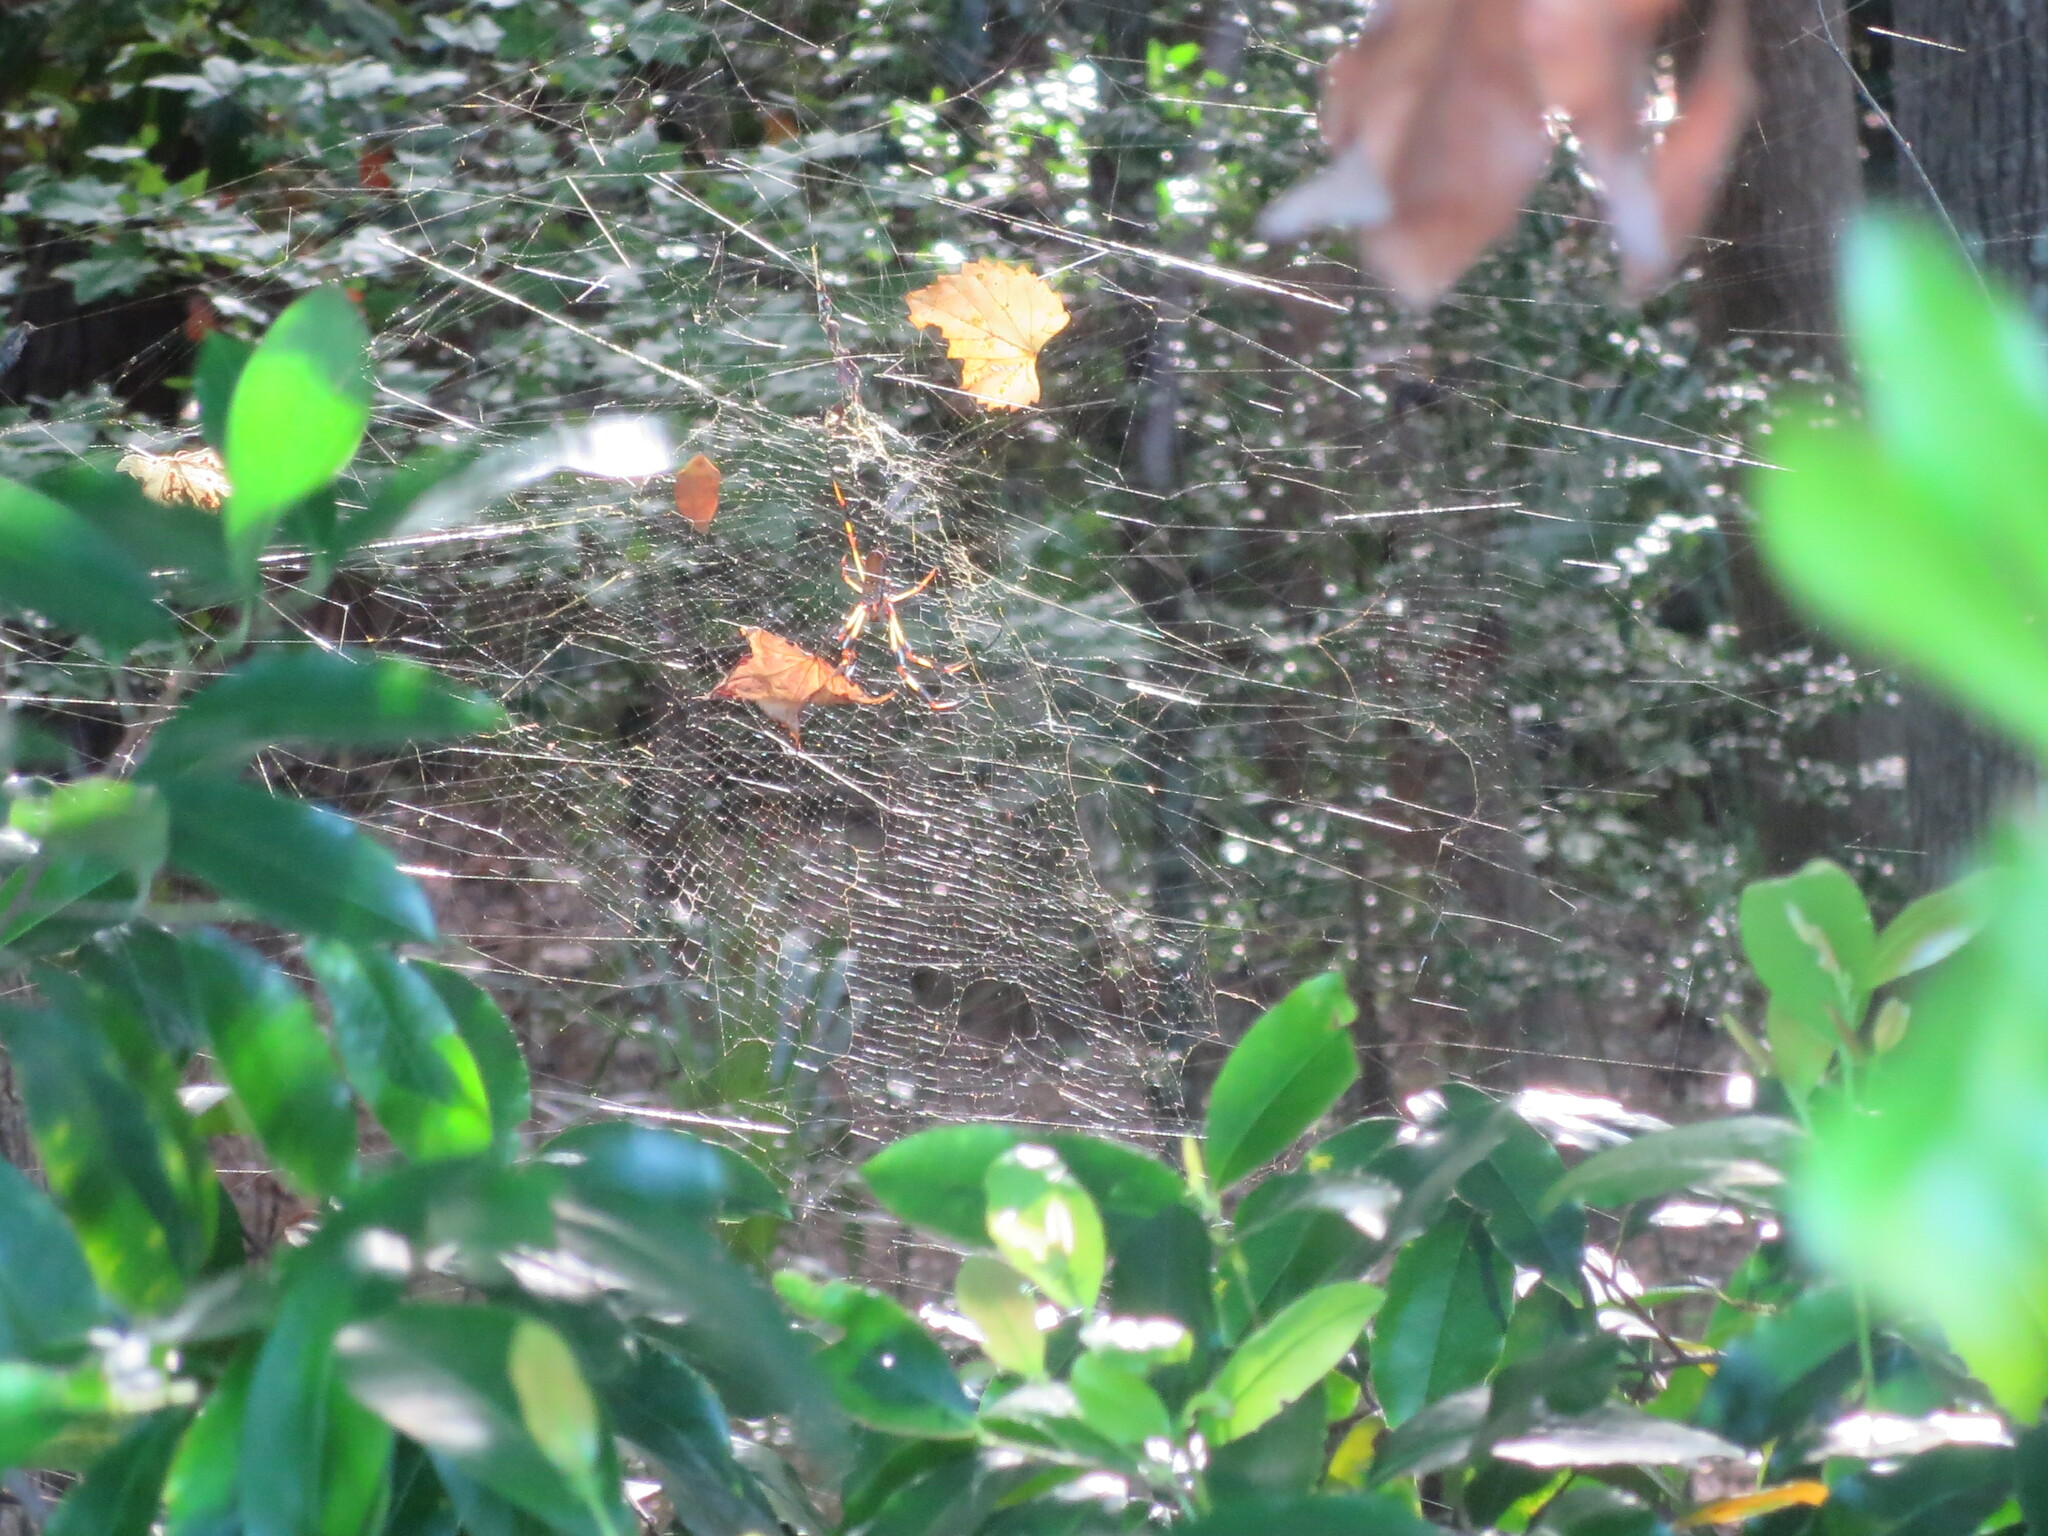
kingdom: Animalia
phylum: Arthropoda
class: Arachnida
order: Araneae
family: Araneidae
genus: Trichonephila
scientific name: Trichonephila clavipes
